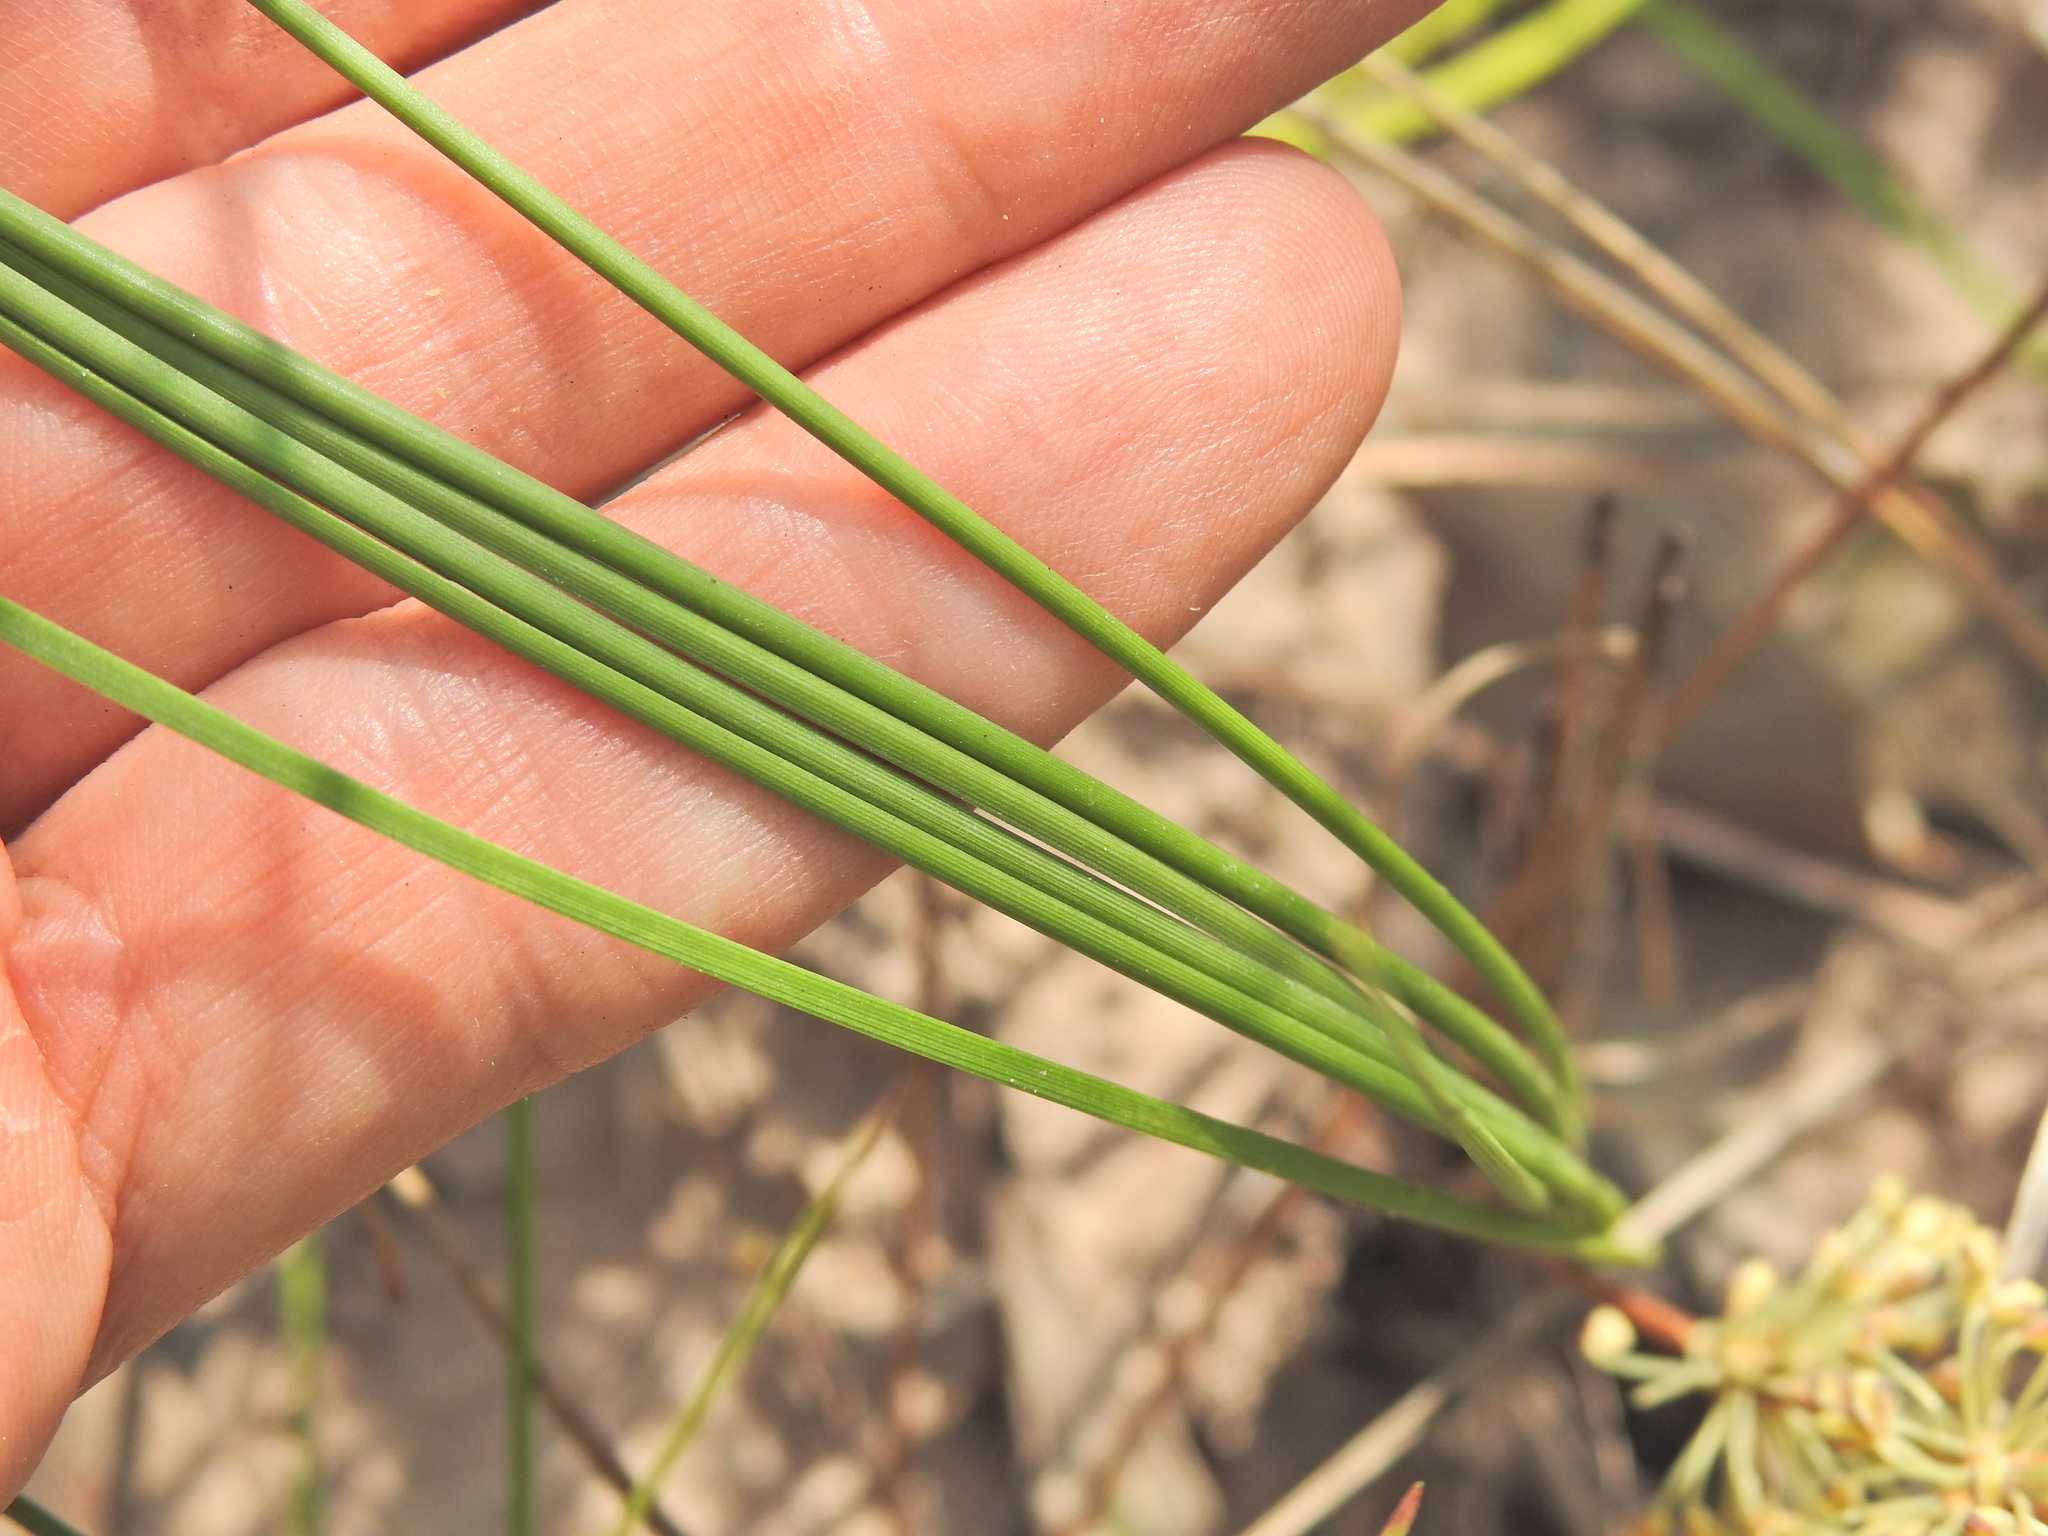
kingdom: Plantae
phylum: Tracheophyta
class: Liliopsida
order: Asparagales
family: Asparagaceae
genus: Lomandra
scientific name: Lomandra multiflora
